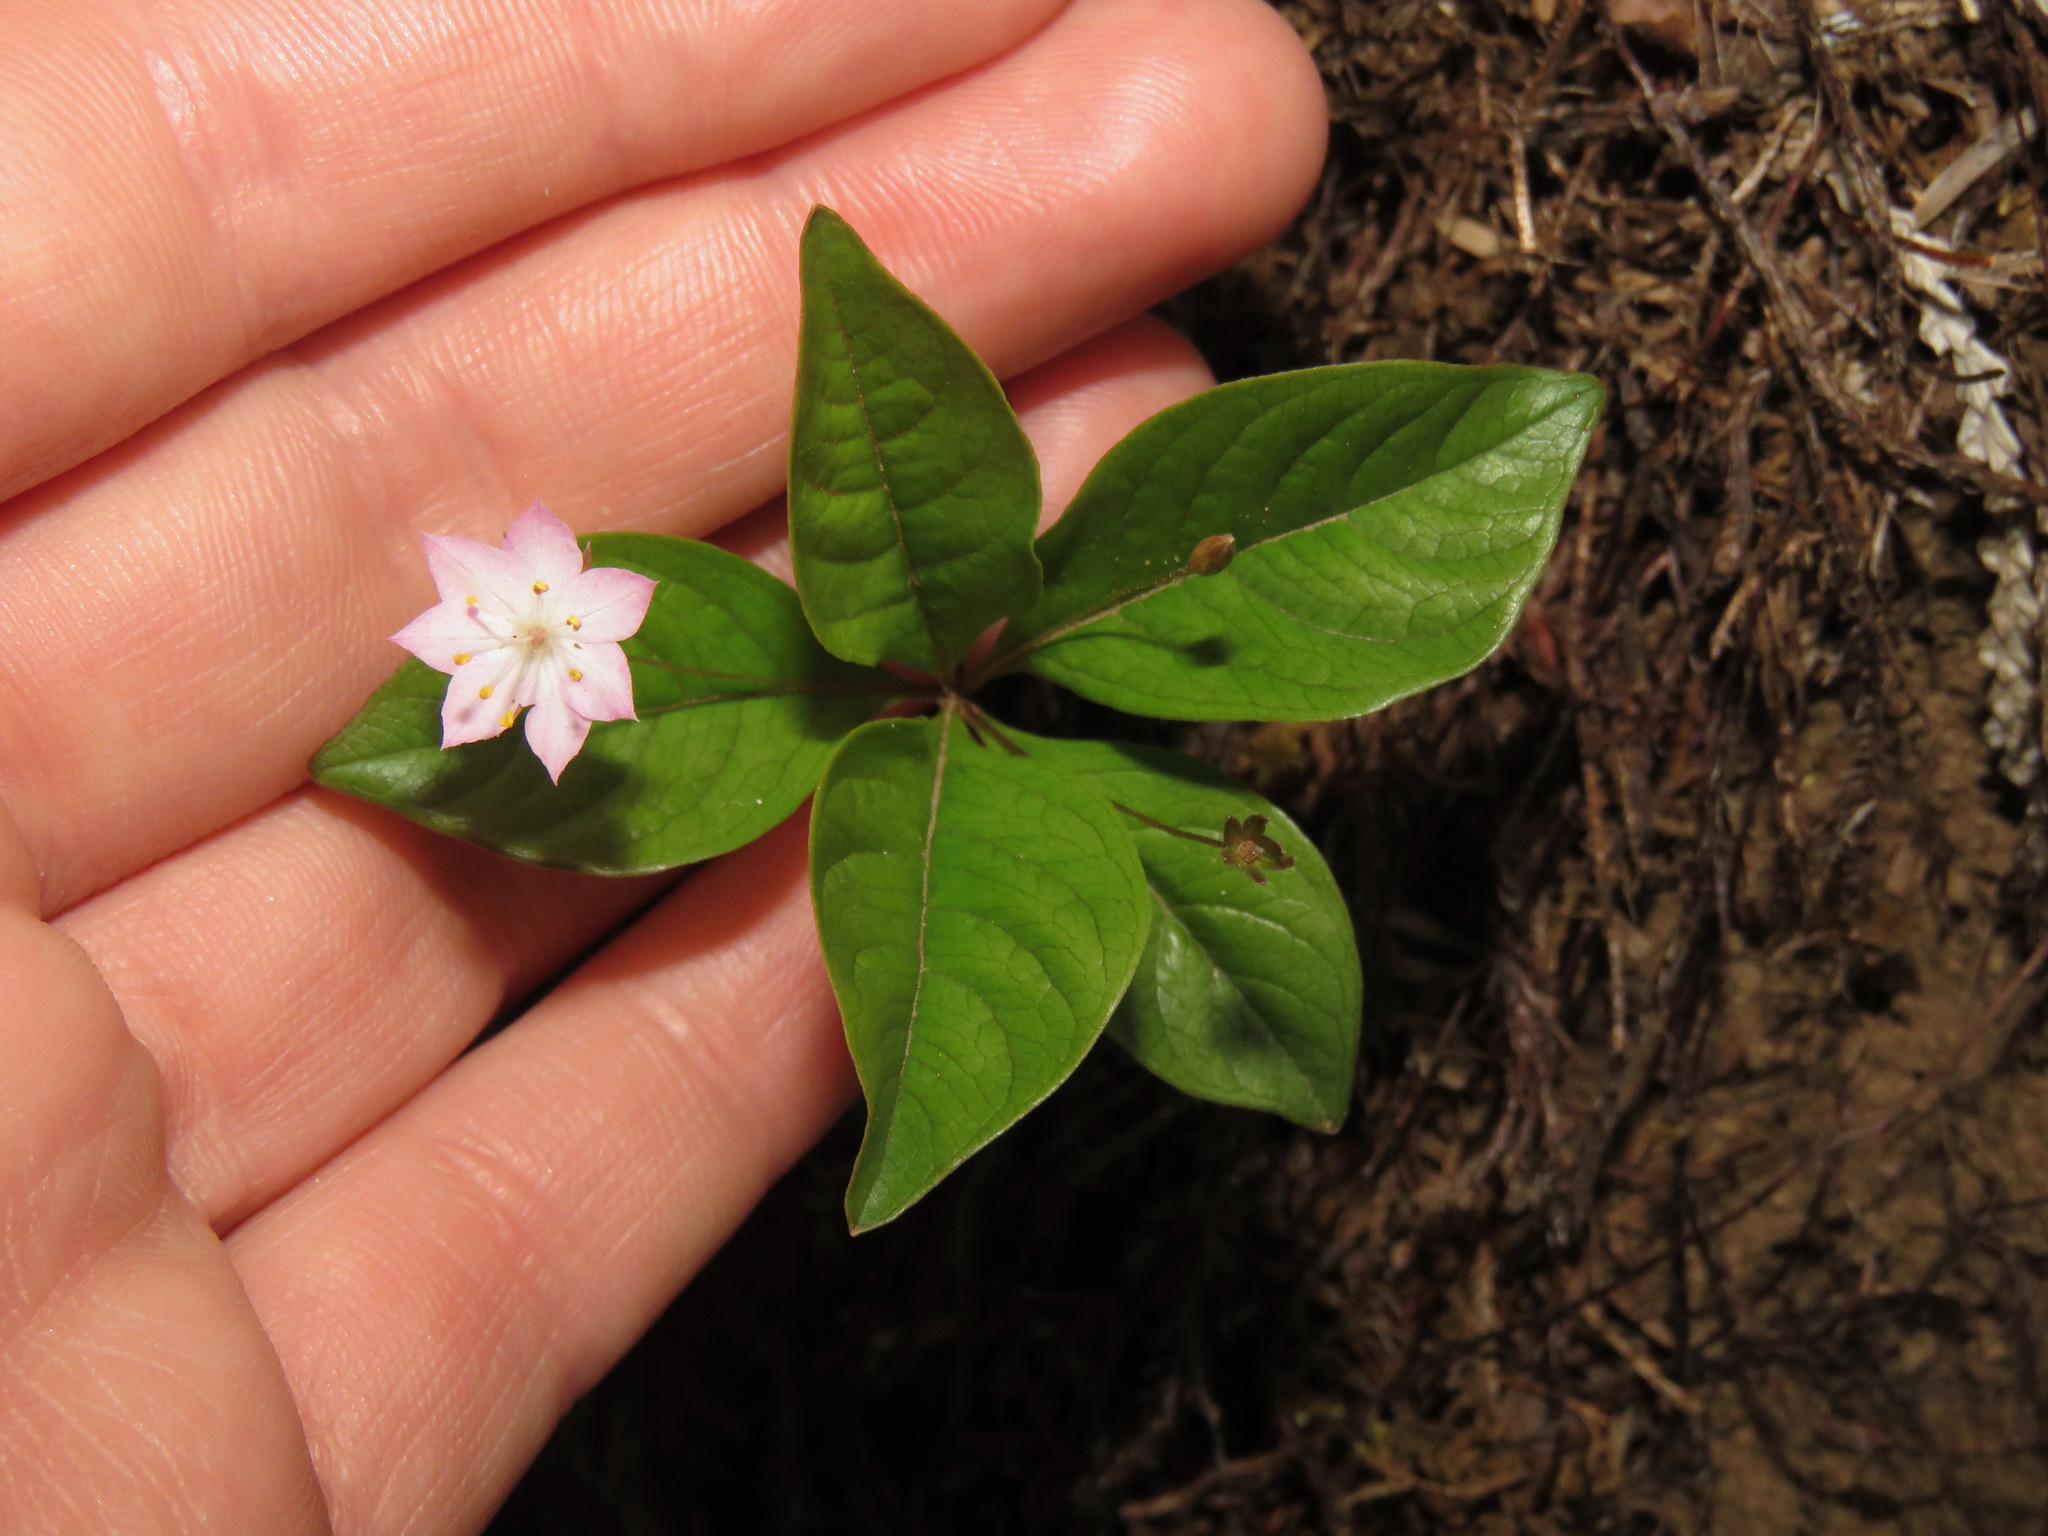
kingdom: Plantae
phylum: Tracheophyta
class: Magnoliopsida
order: Ericales
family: Primulaceae
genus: Lysimachia
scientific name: Lysimachia latifolia
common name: Pacific starflower
